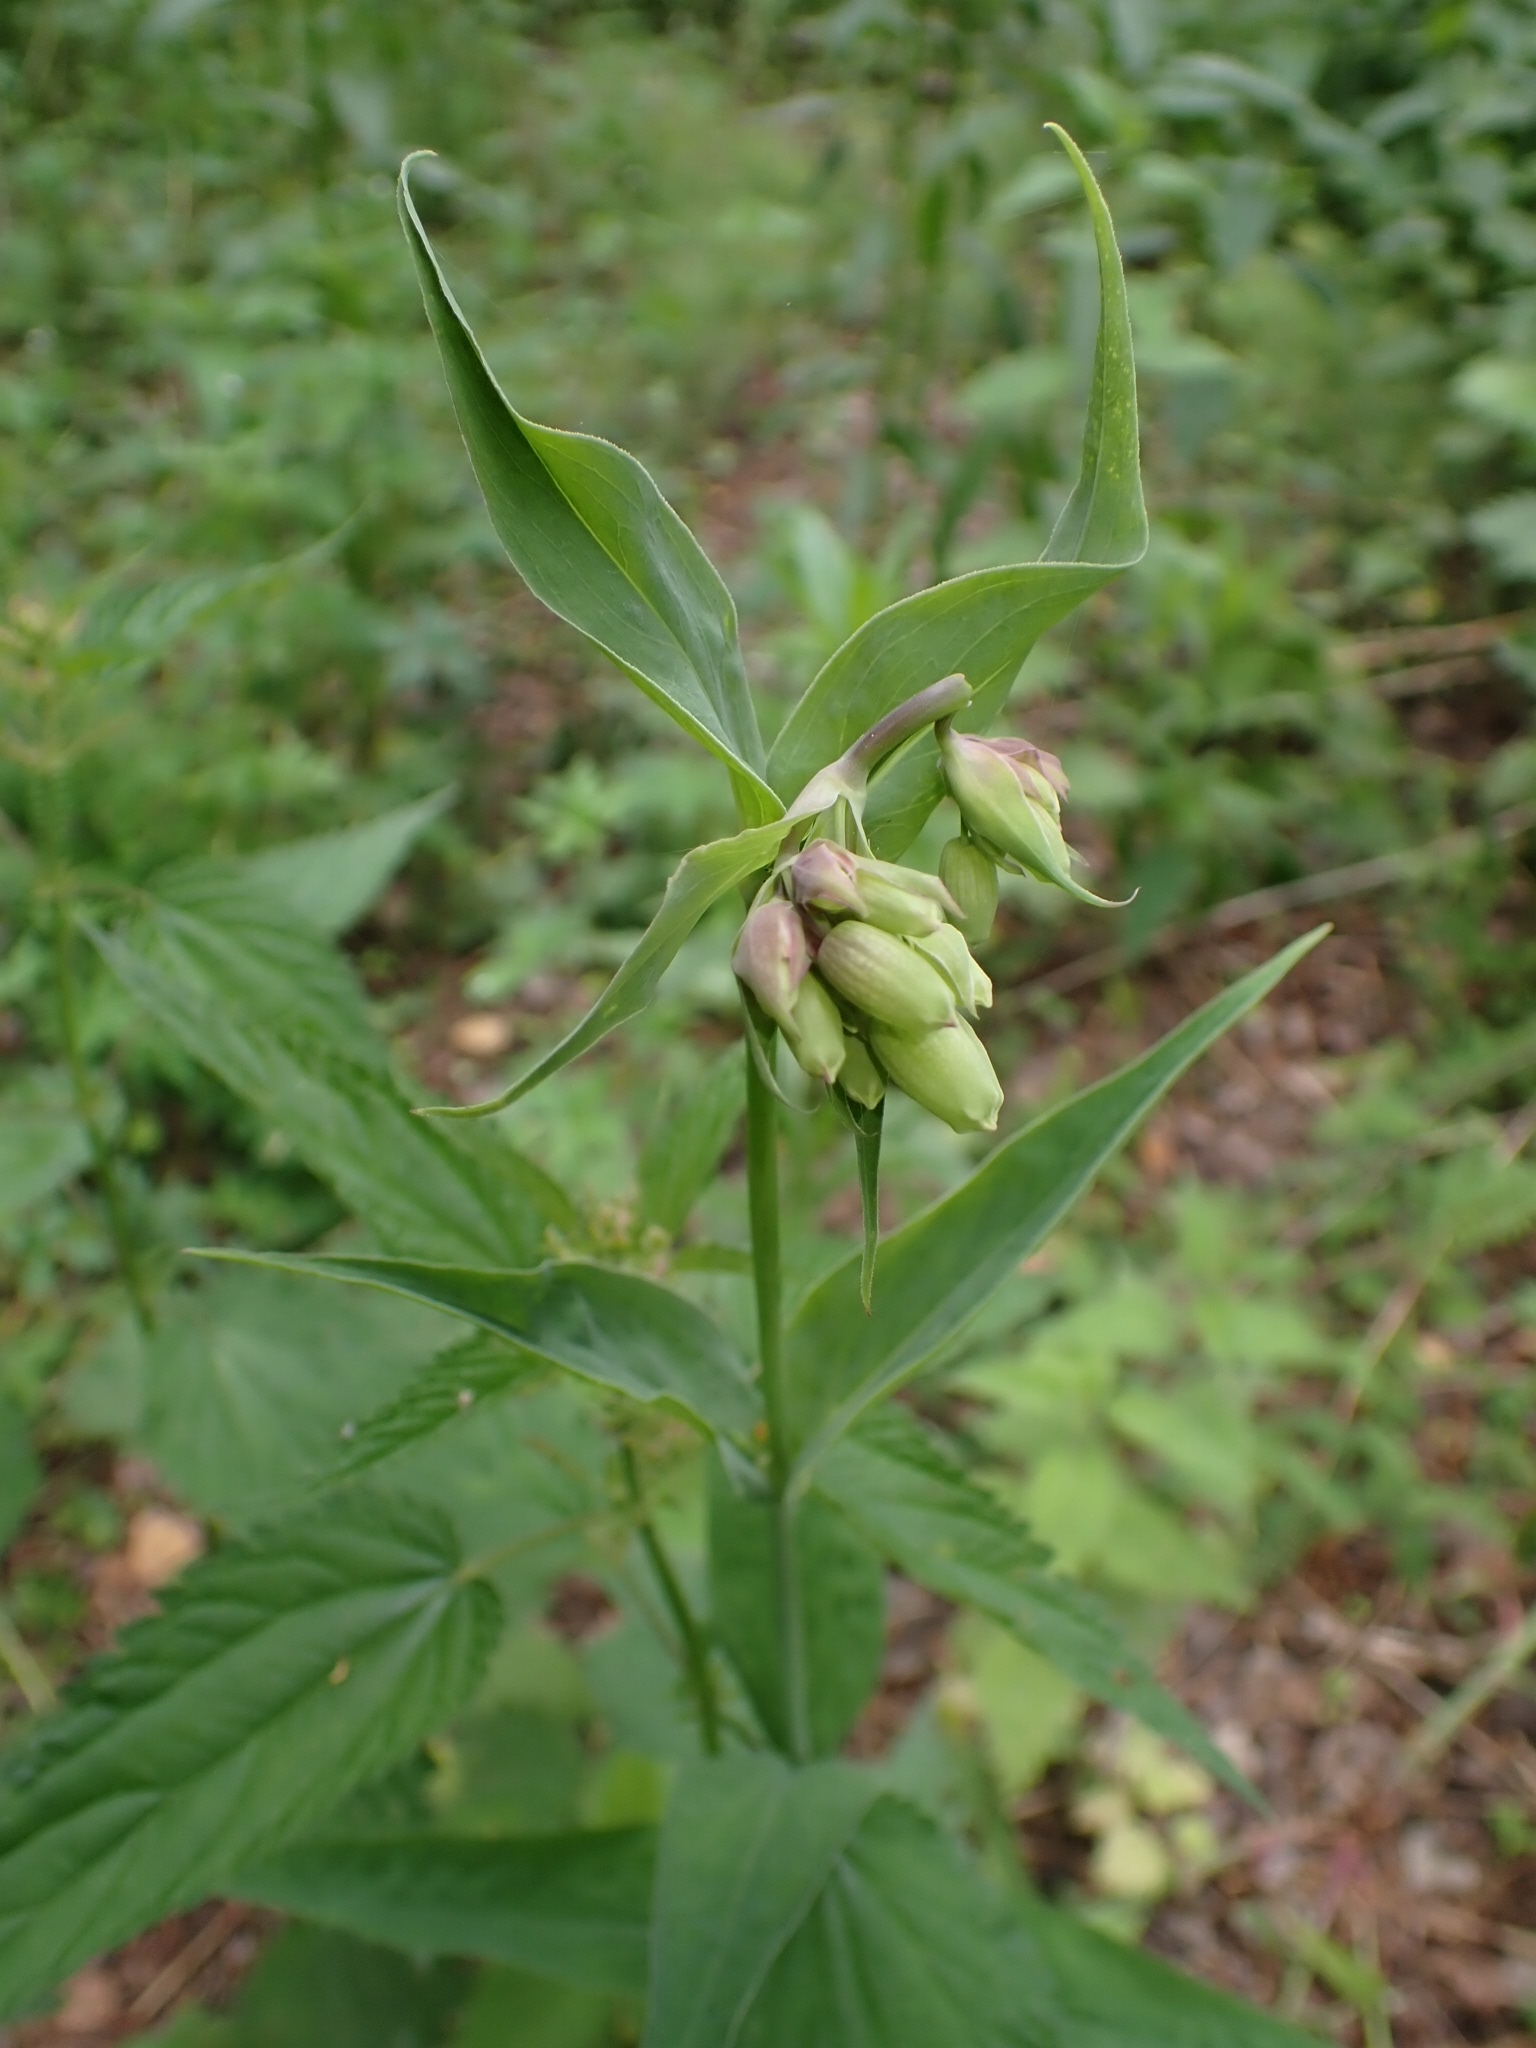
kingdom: Plantae
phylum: Tracheophyta
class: Magnoliopsida
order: Caryophyllales
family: Caryophyllaceae
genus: Silene
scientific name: Silene vulgaris
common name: Bladder campion
